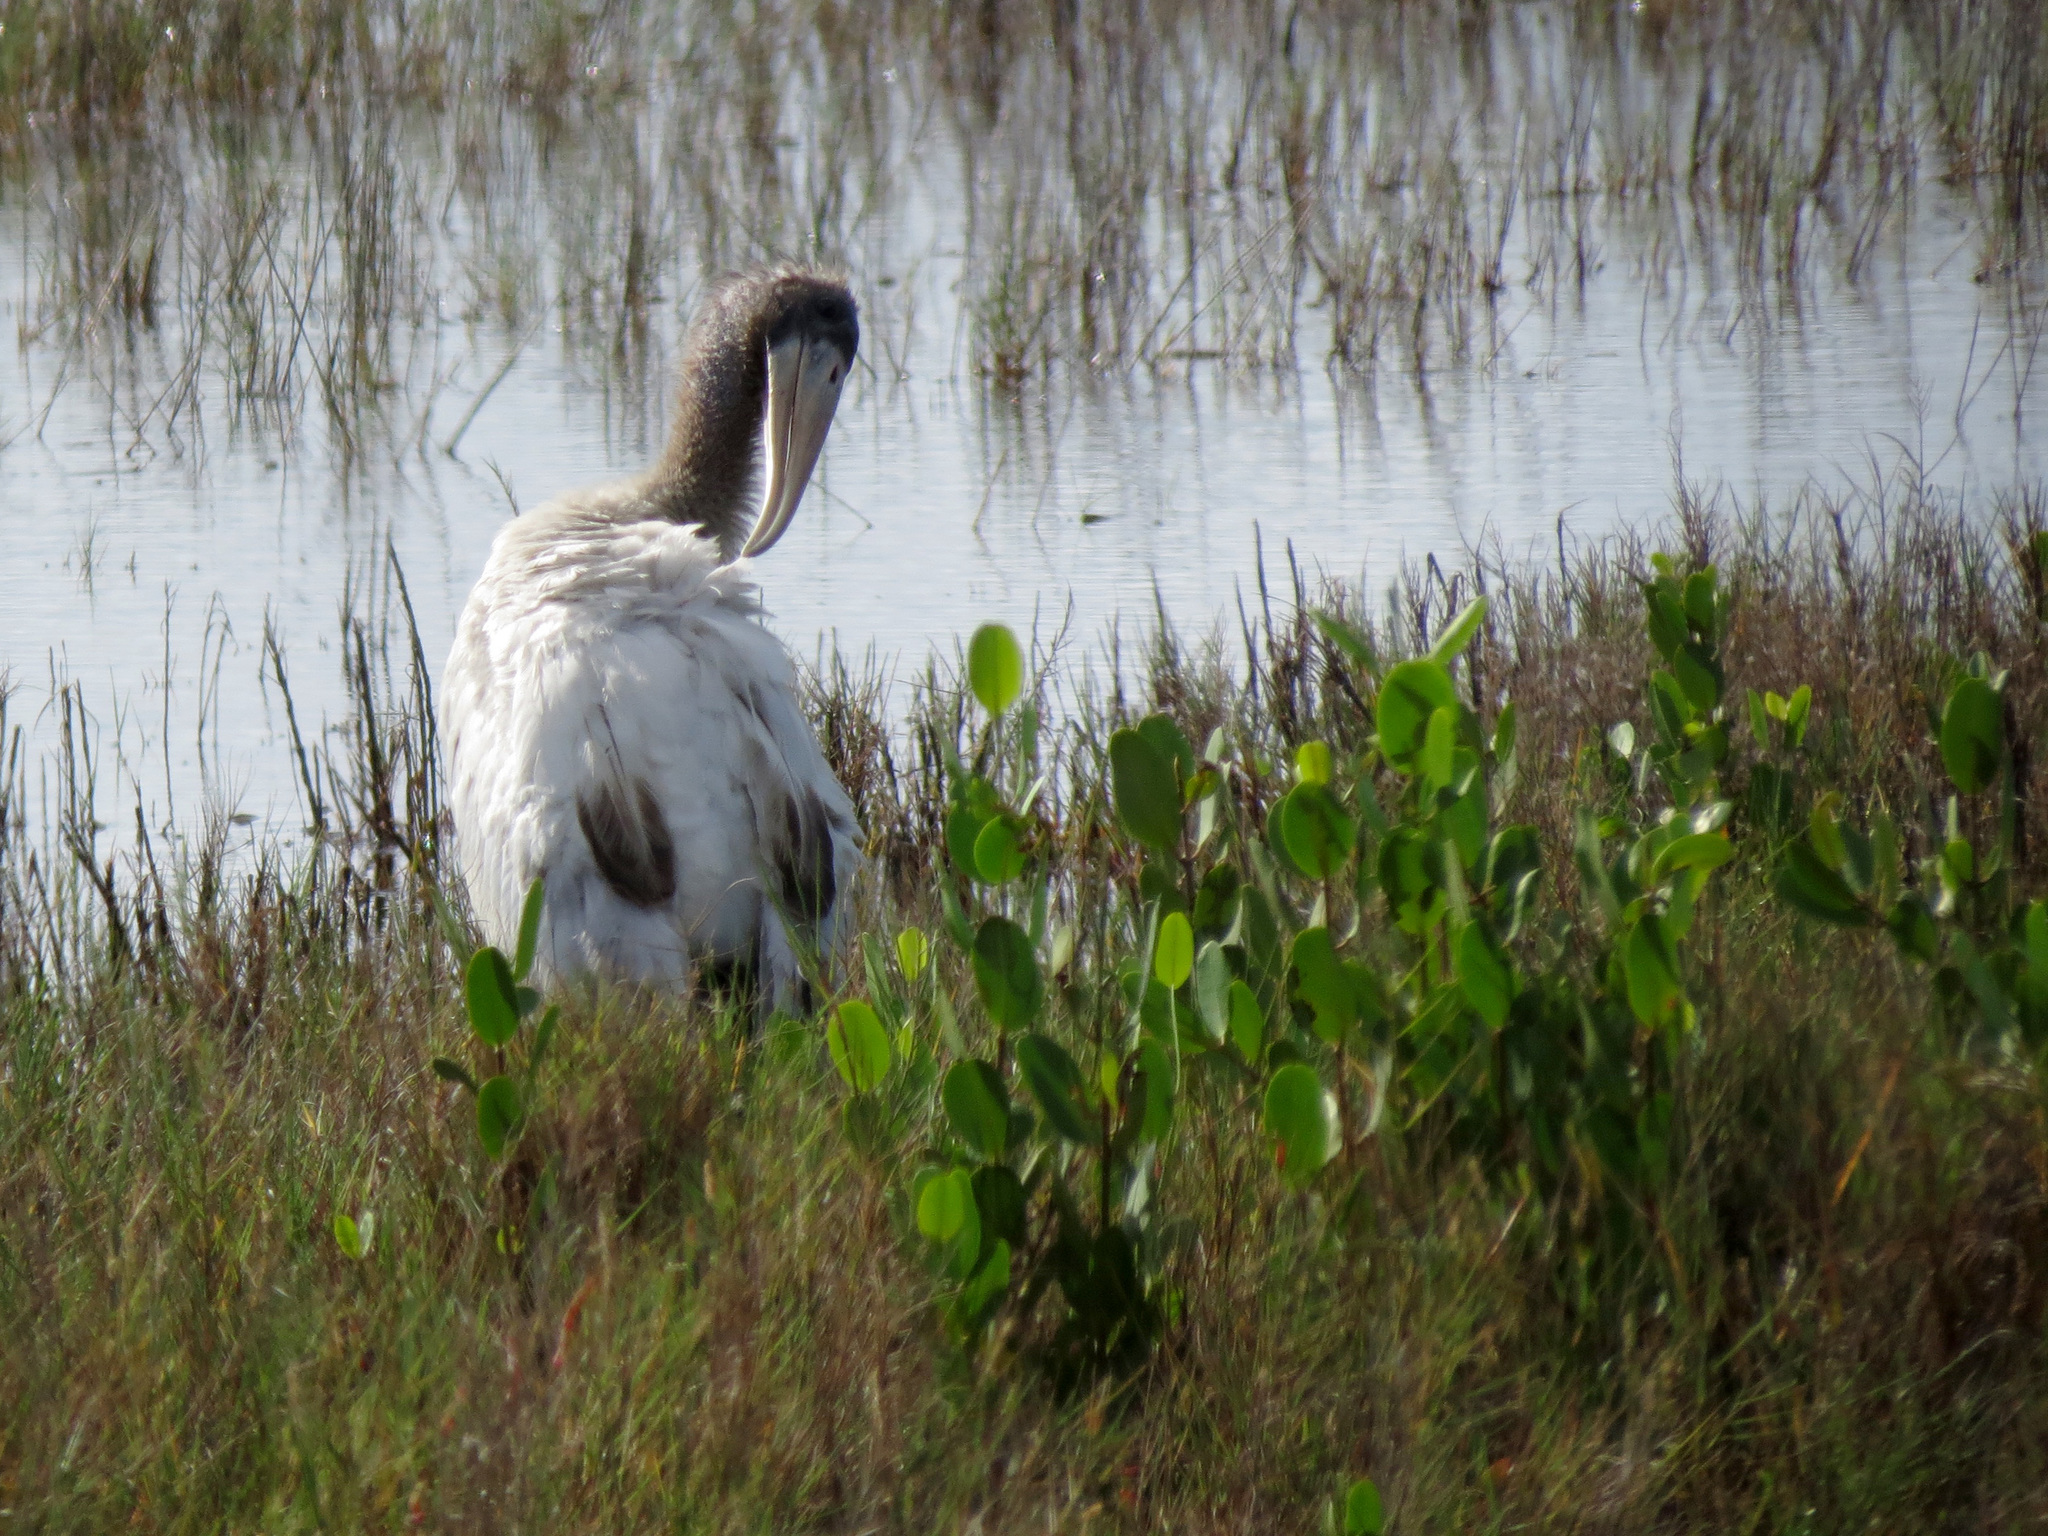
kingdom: Animalia
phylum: Chordata
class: Aves
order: Ciconiiformes
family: Ciconiidae
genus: Mycteria
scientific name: Mycteria americana
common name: Wood stork
